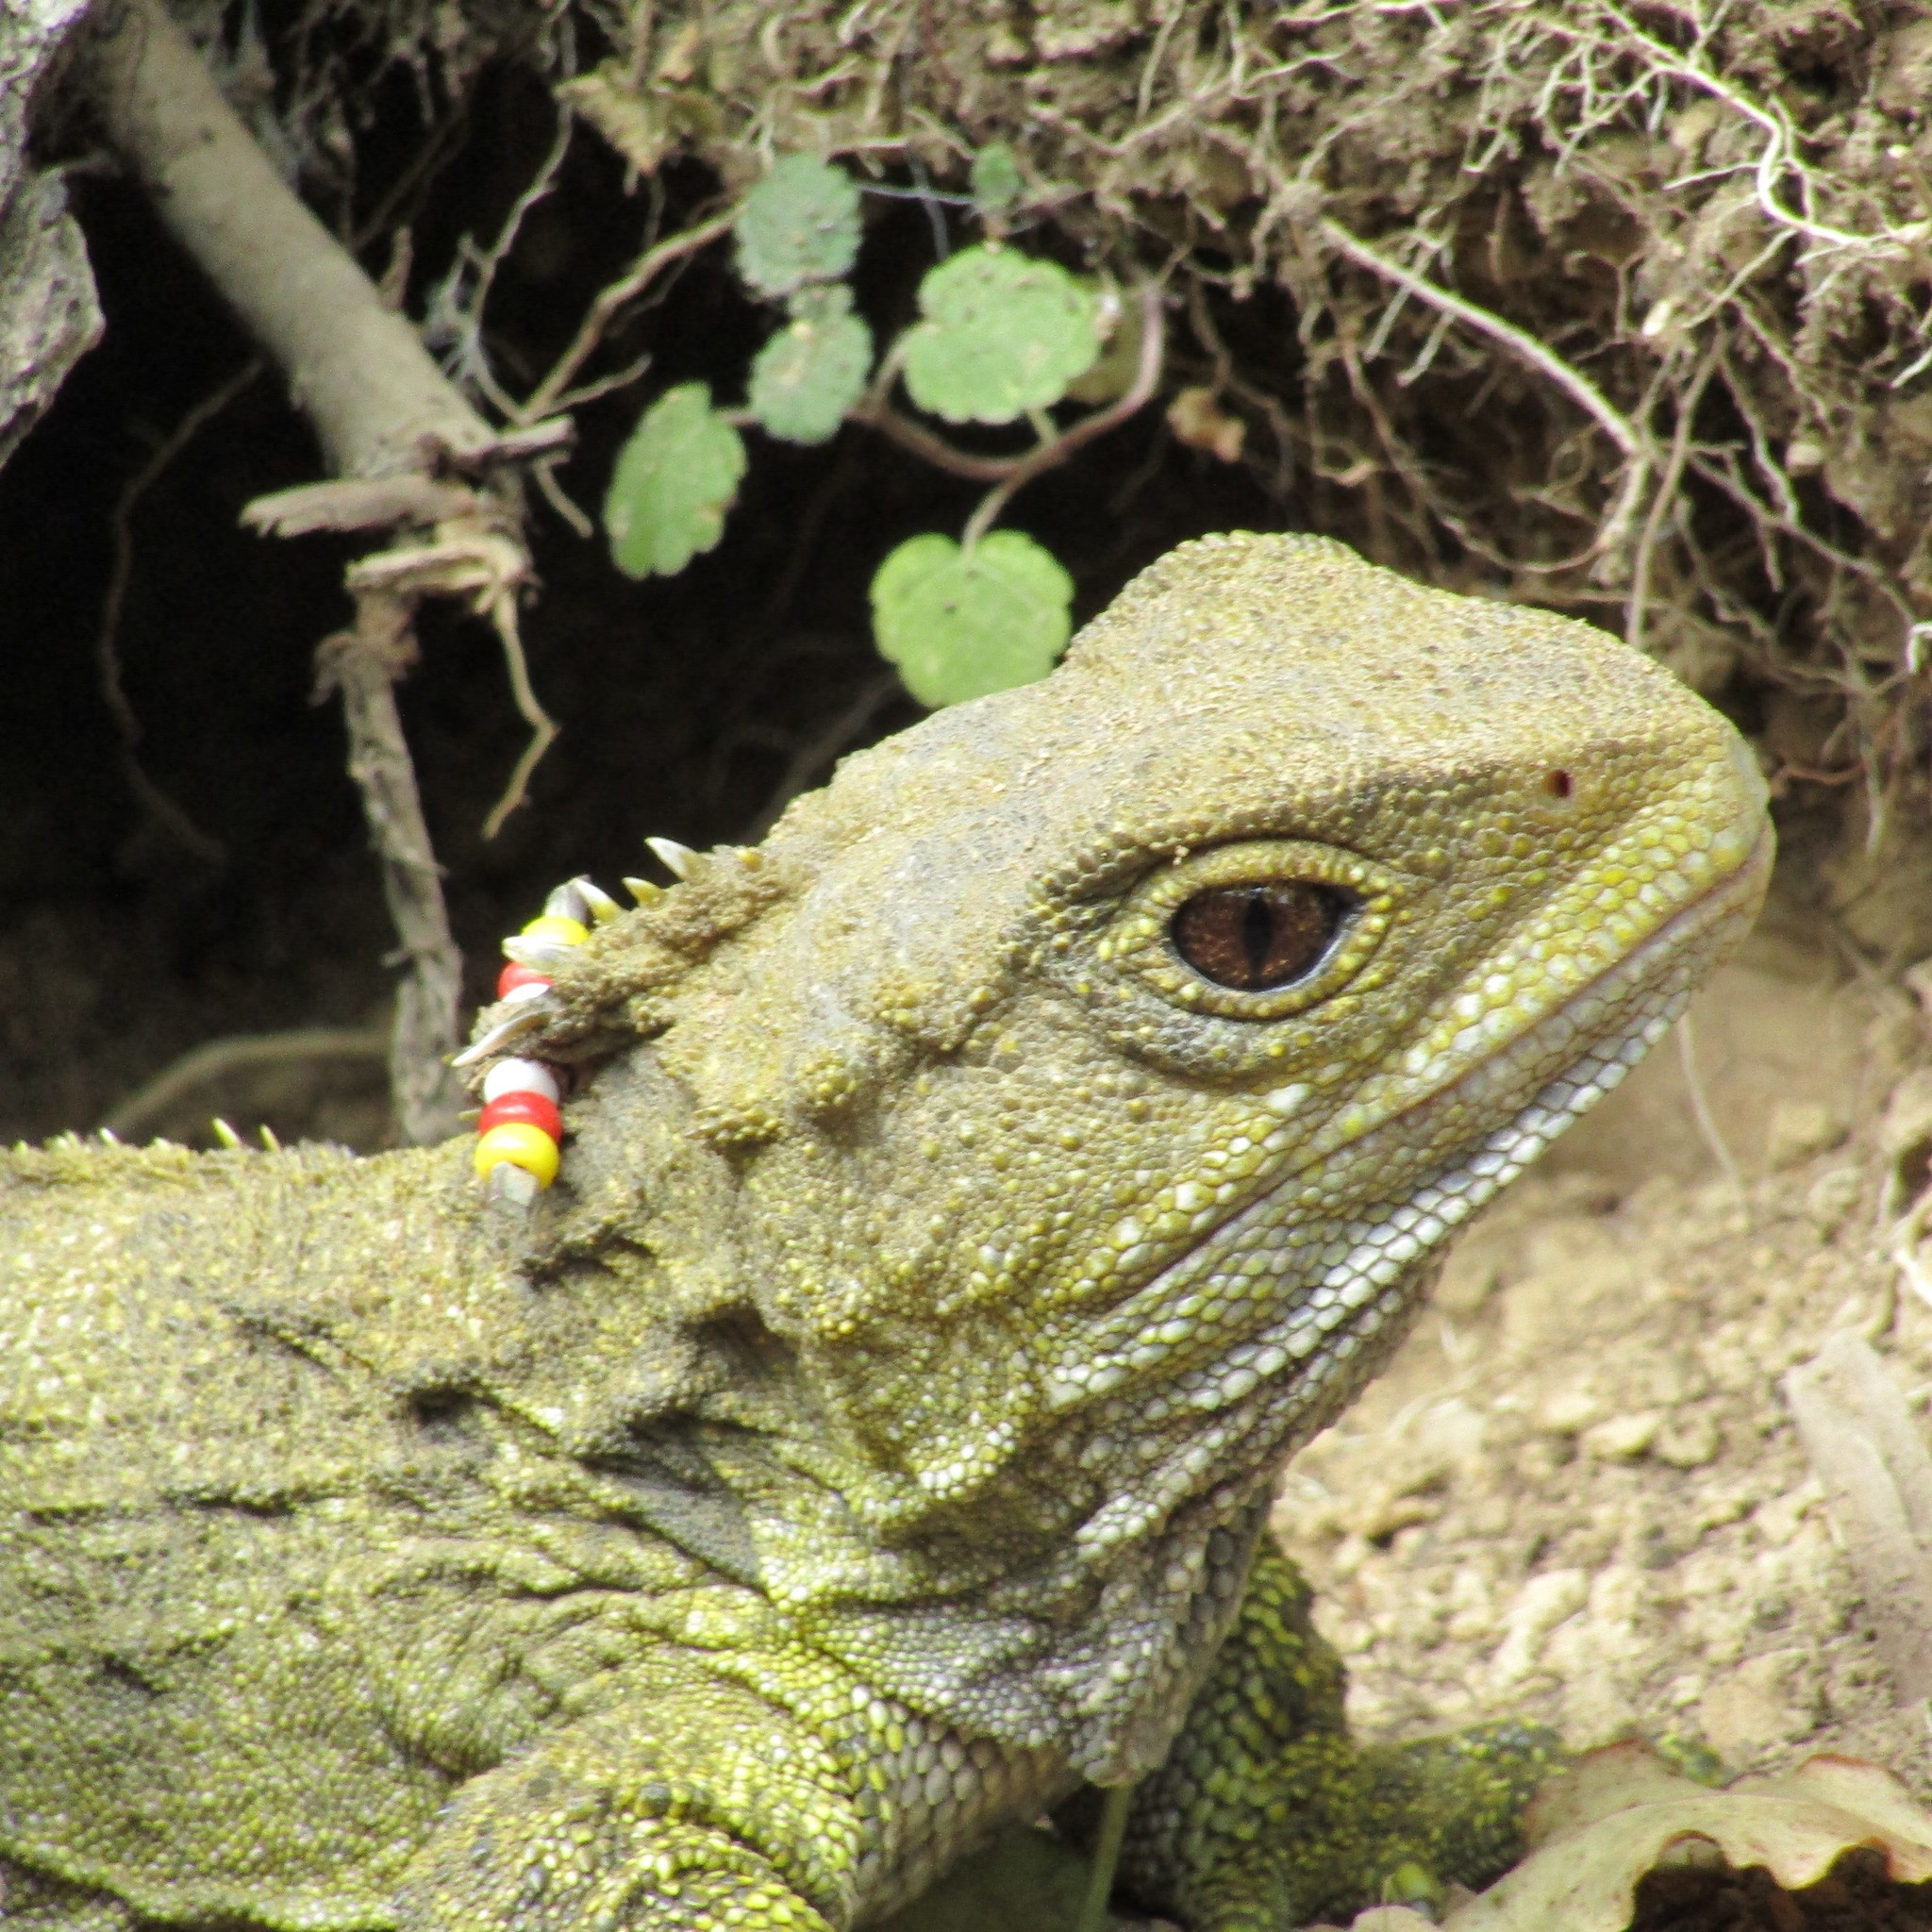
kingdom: Animalia
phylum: Chordata
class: Sphenodontia
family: Sphenodontidae
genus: Sphenodon
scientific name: Sphenodon punctatus
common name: Tuatara
